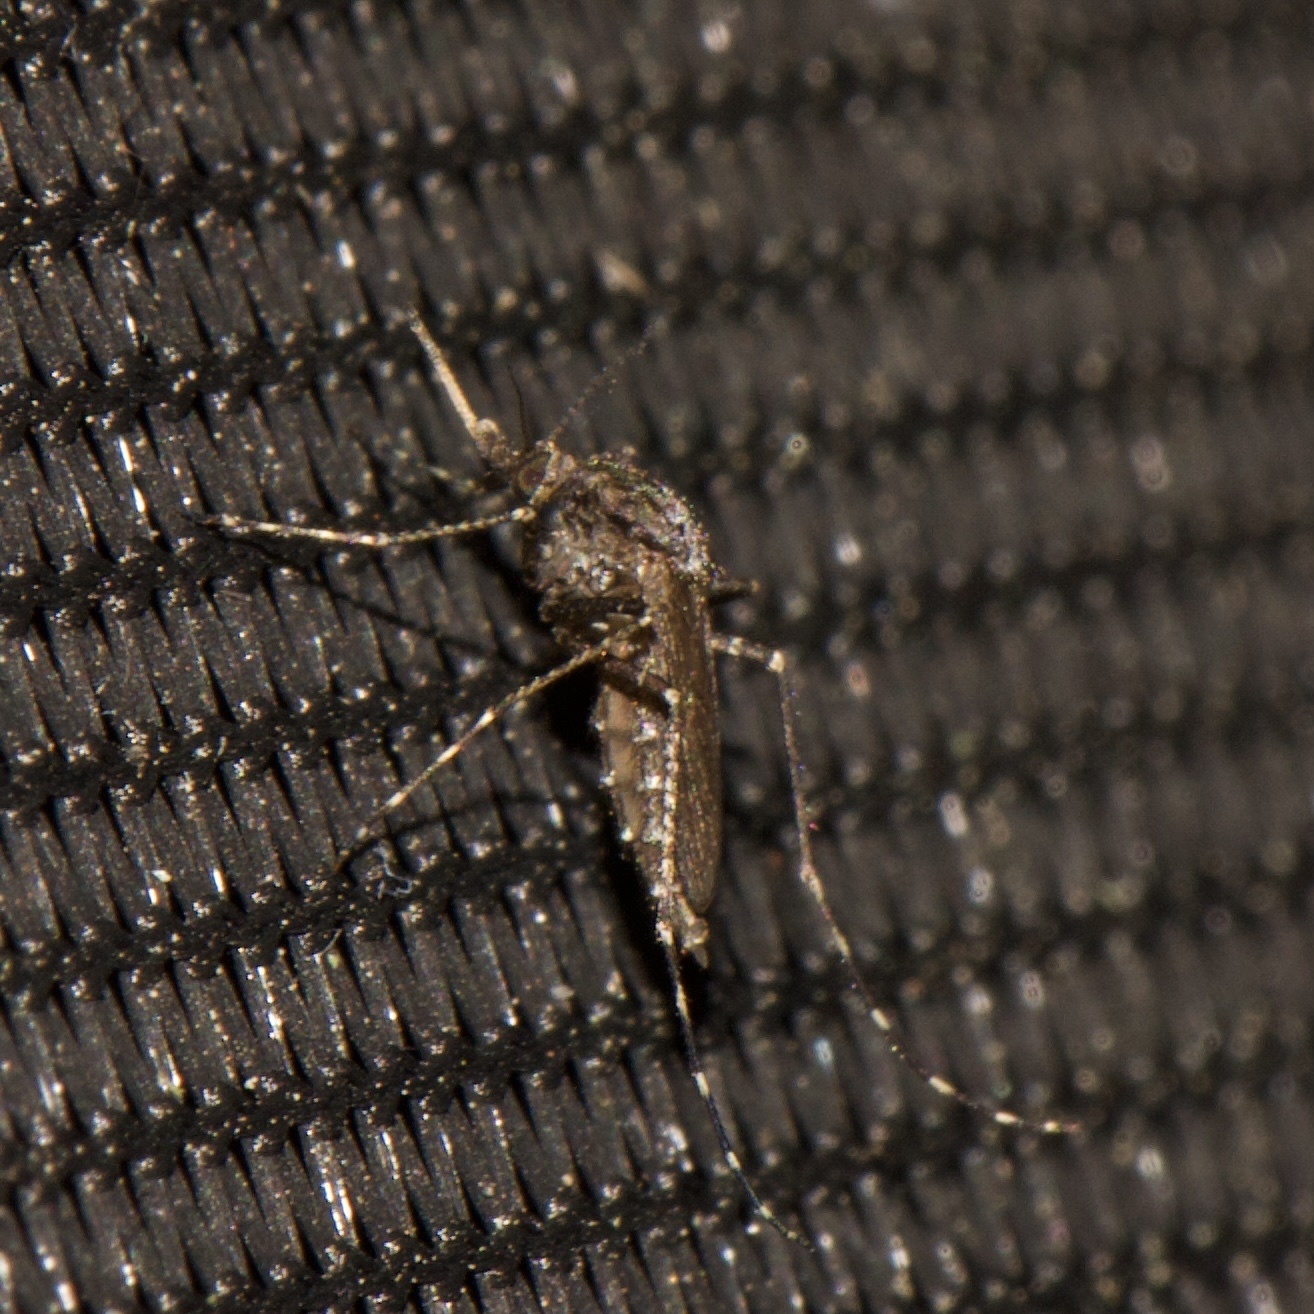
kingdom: Animalia
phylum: Arthropoda
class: Insecta
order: Diptera
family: Culicidae
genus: Psorophora
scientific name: Psorophora columbiae
